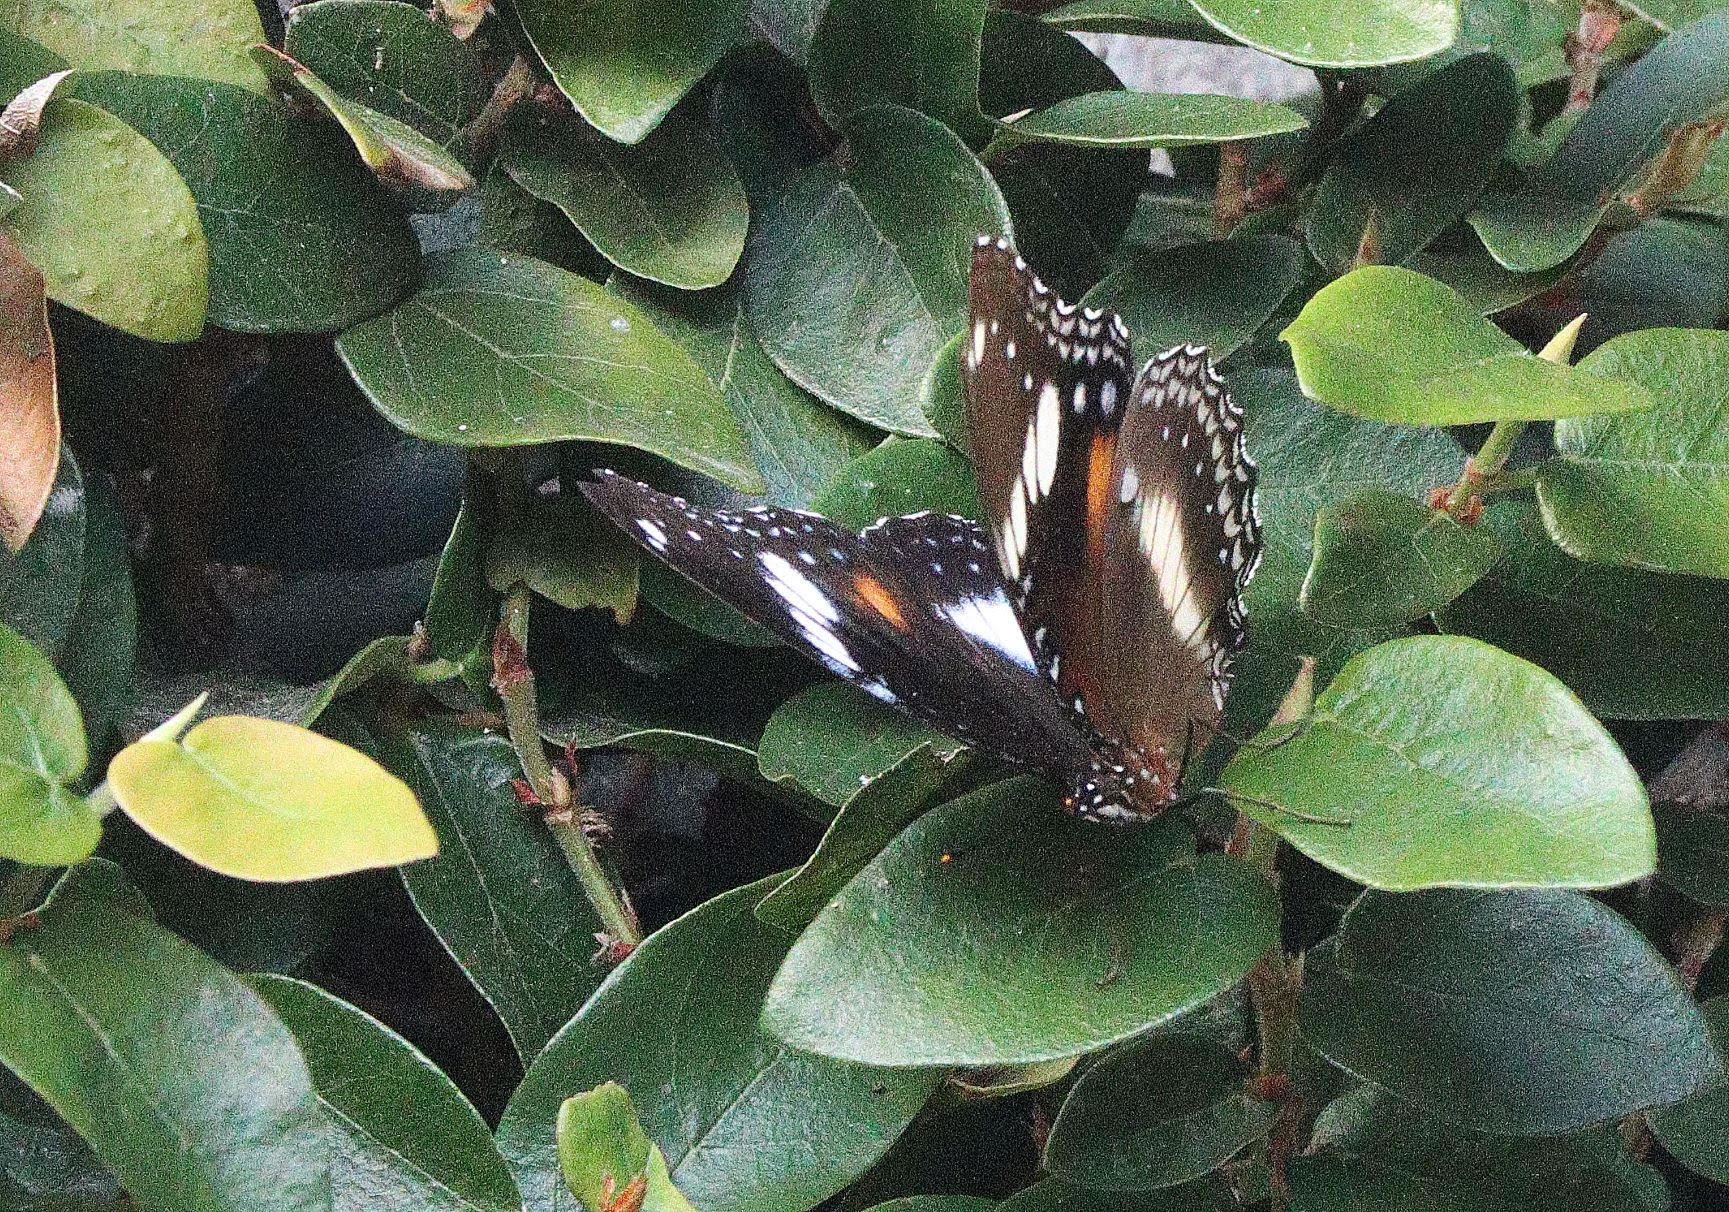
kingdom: Animalia
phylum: Arthropoda
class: Insecta
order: Lepidoptera
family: Nymphalidae
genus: Hypolimnas
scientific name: Hypolimnas bolina
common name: Great eggfly
